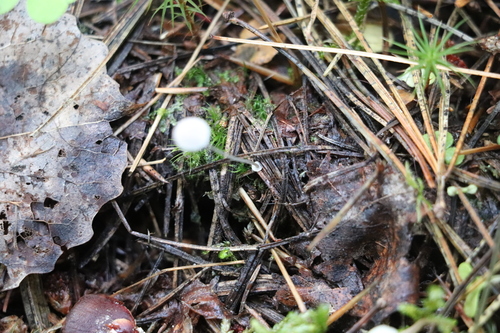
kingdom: Fungi
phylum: Basidiomycota
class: Agaricomycetes
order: Agaricales
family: Mycenaceae
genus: Mycena
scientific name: Mycena stipata
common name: Clustered pine bonnet
